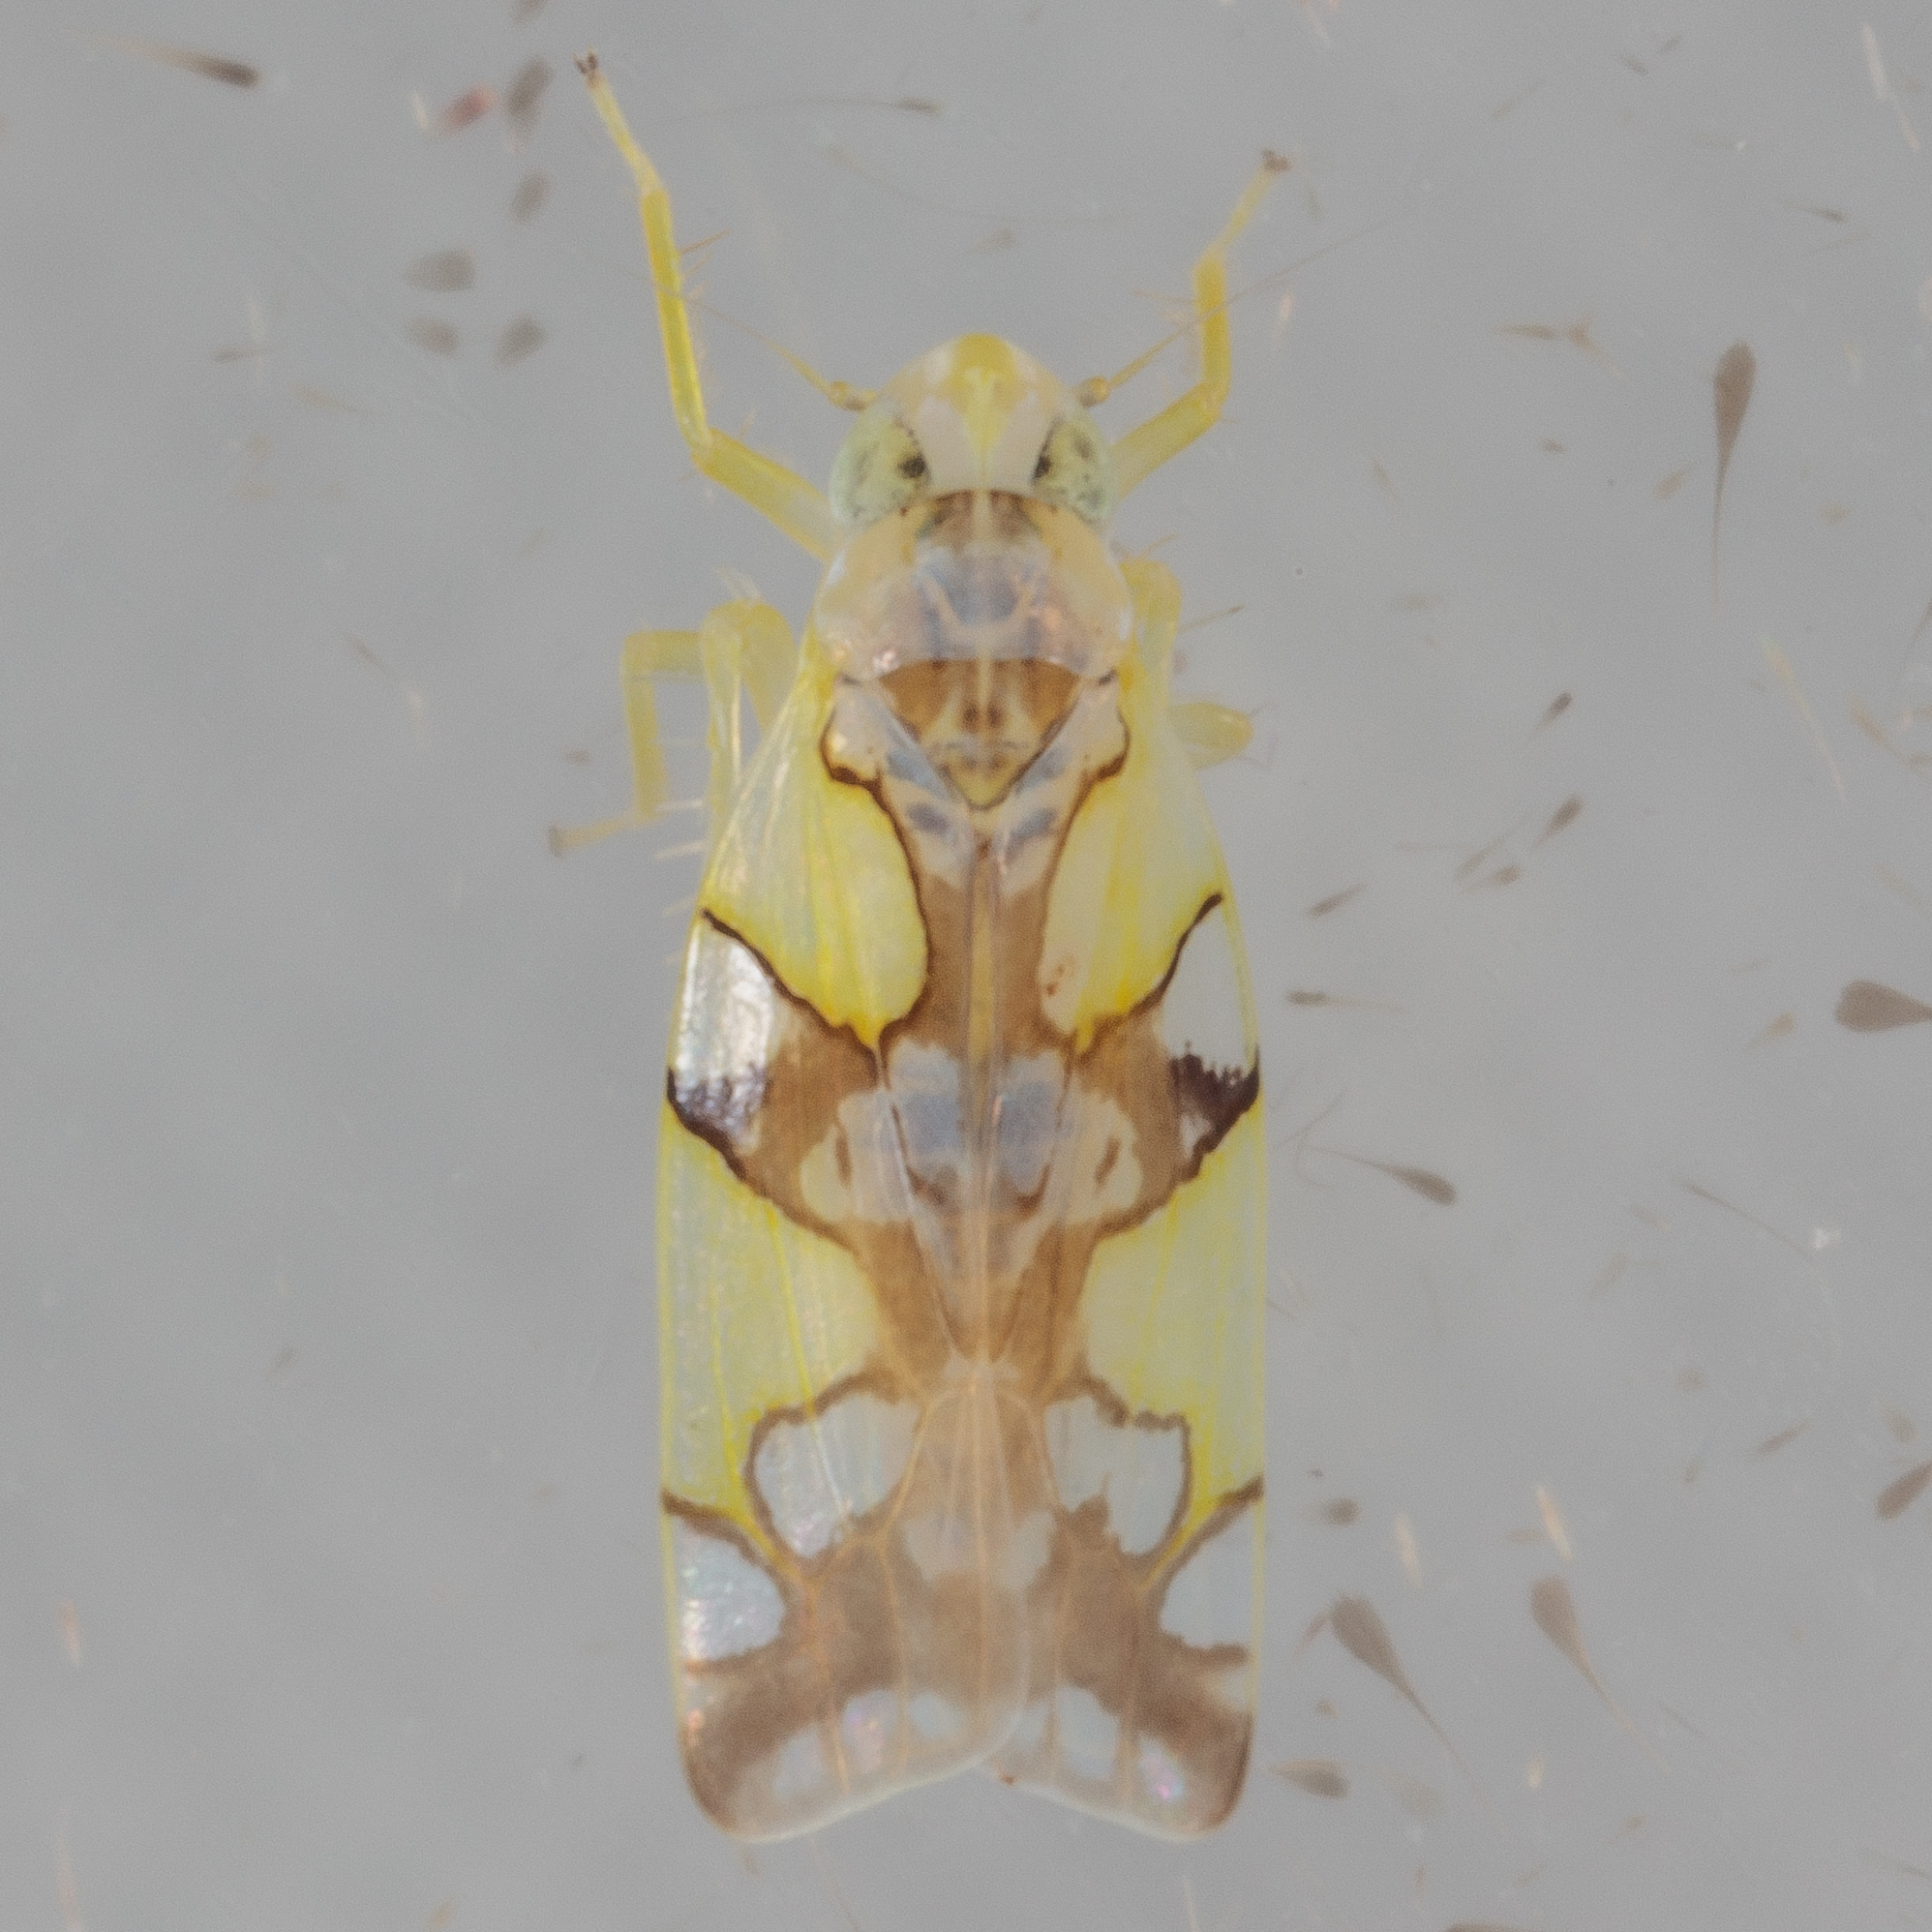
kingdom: Animalia
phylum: Arthropoda
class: Insecta
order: Hemiptera
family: Cicadellidae
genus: Protalebrella
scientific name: Protalebrella conica
